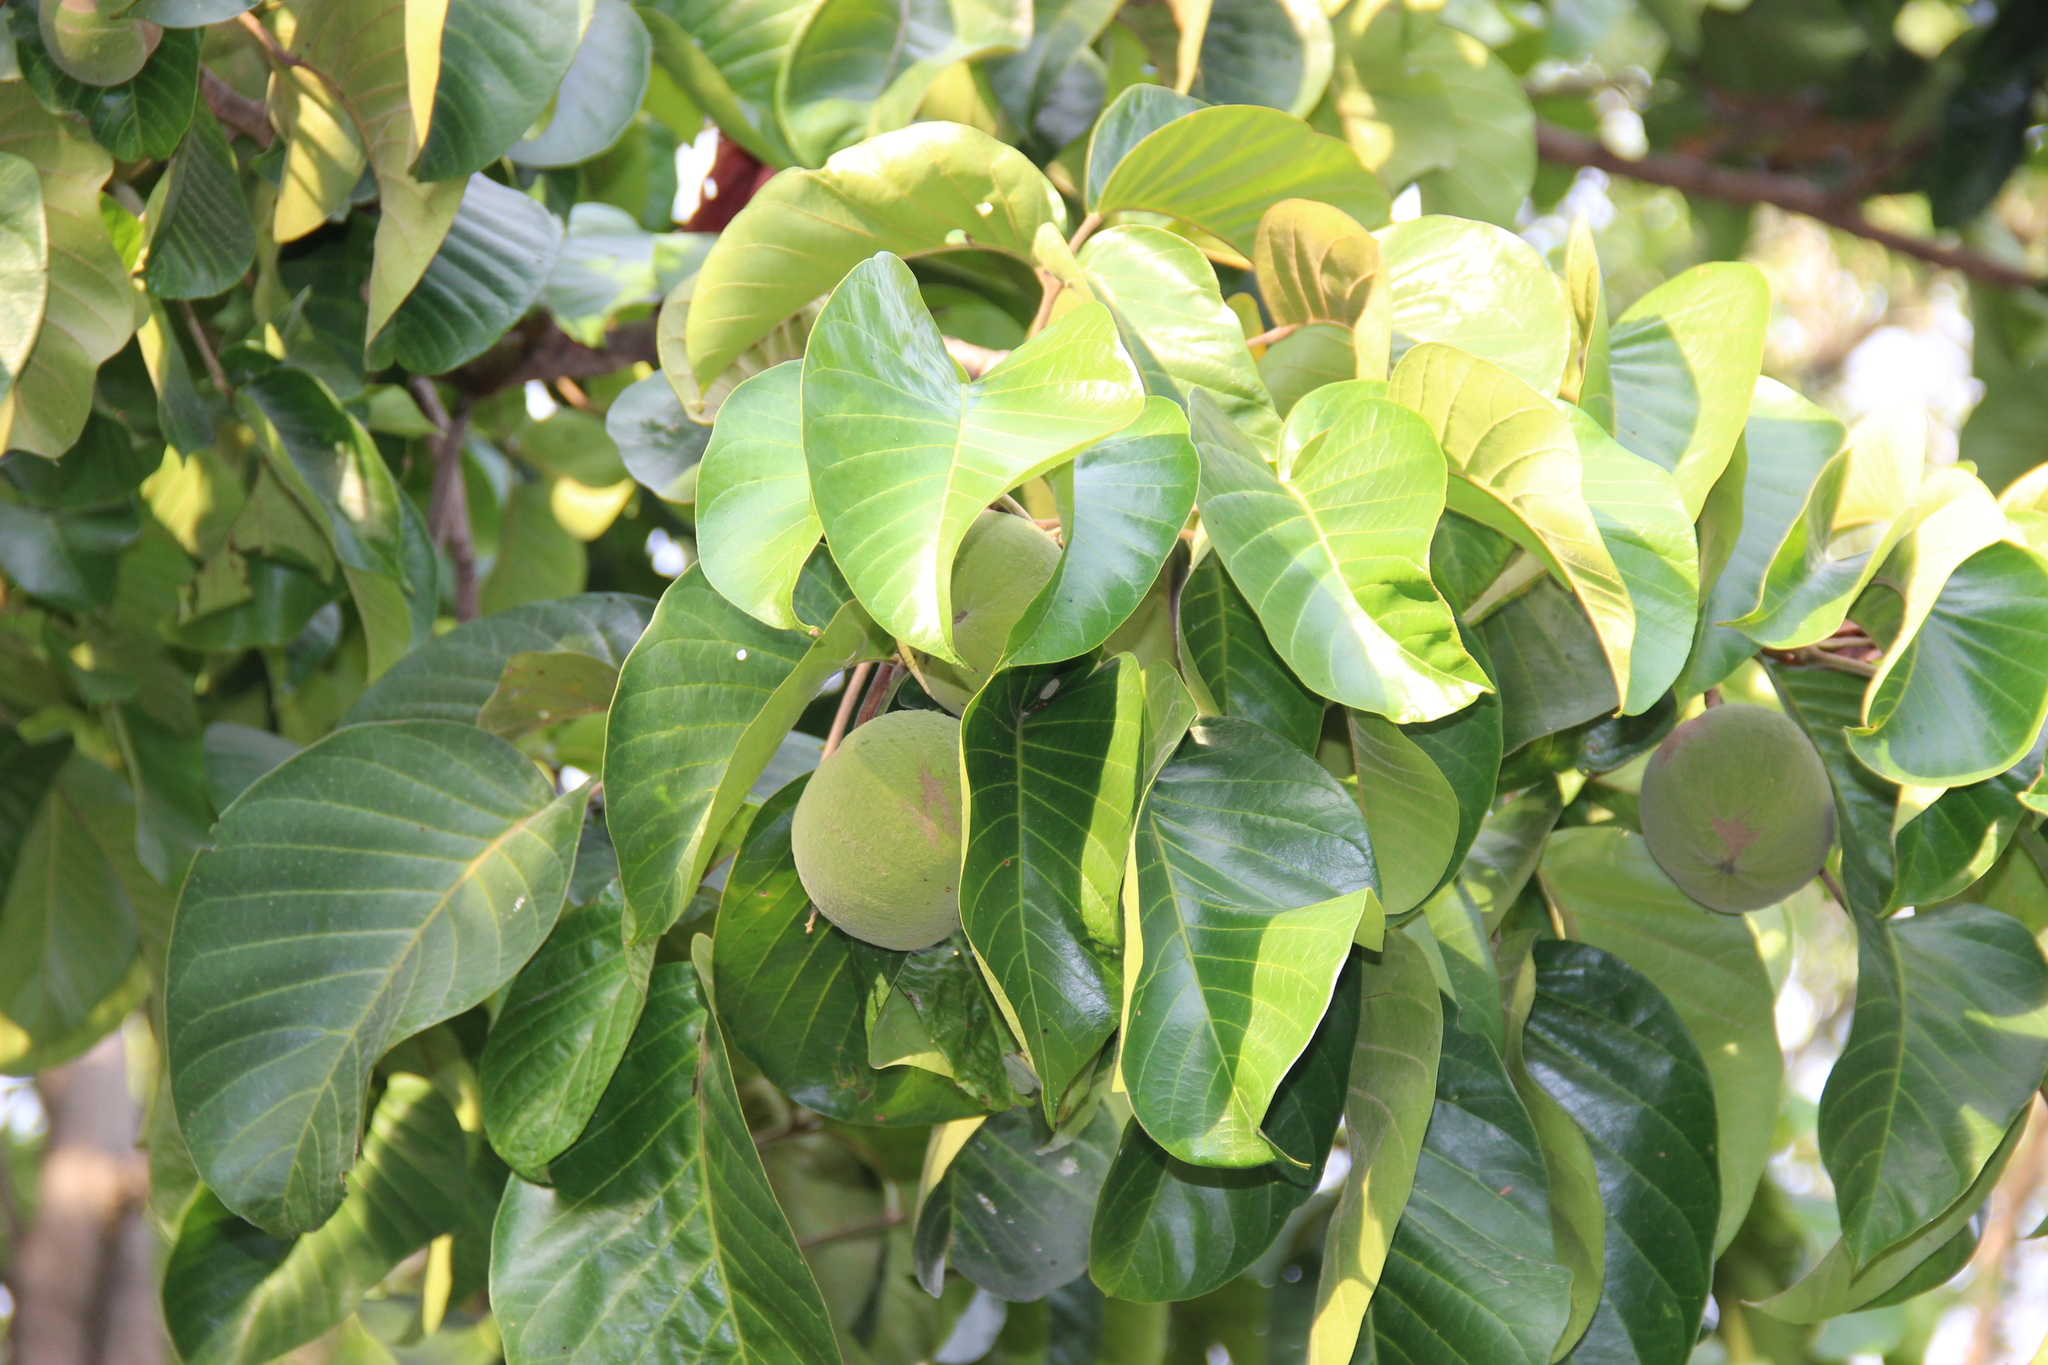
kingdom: Plantae
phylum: Tracheophyta
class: Magnoliopsida
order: Sapindales
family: Meliaceae
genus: Sandoricum
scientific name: Sandoricum koetjape
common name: Santol
